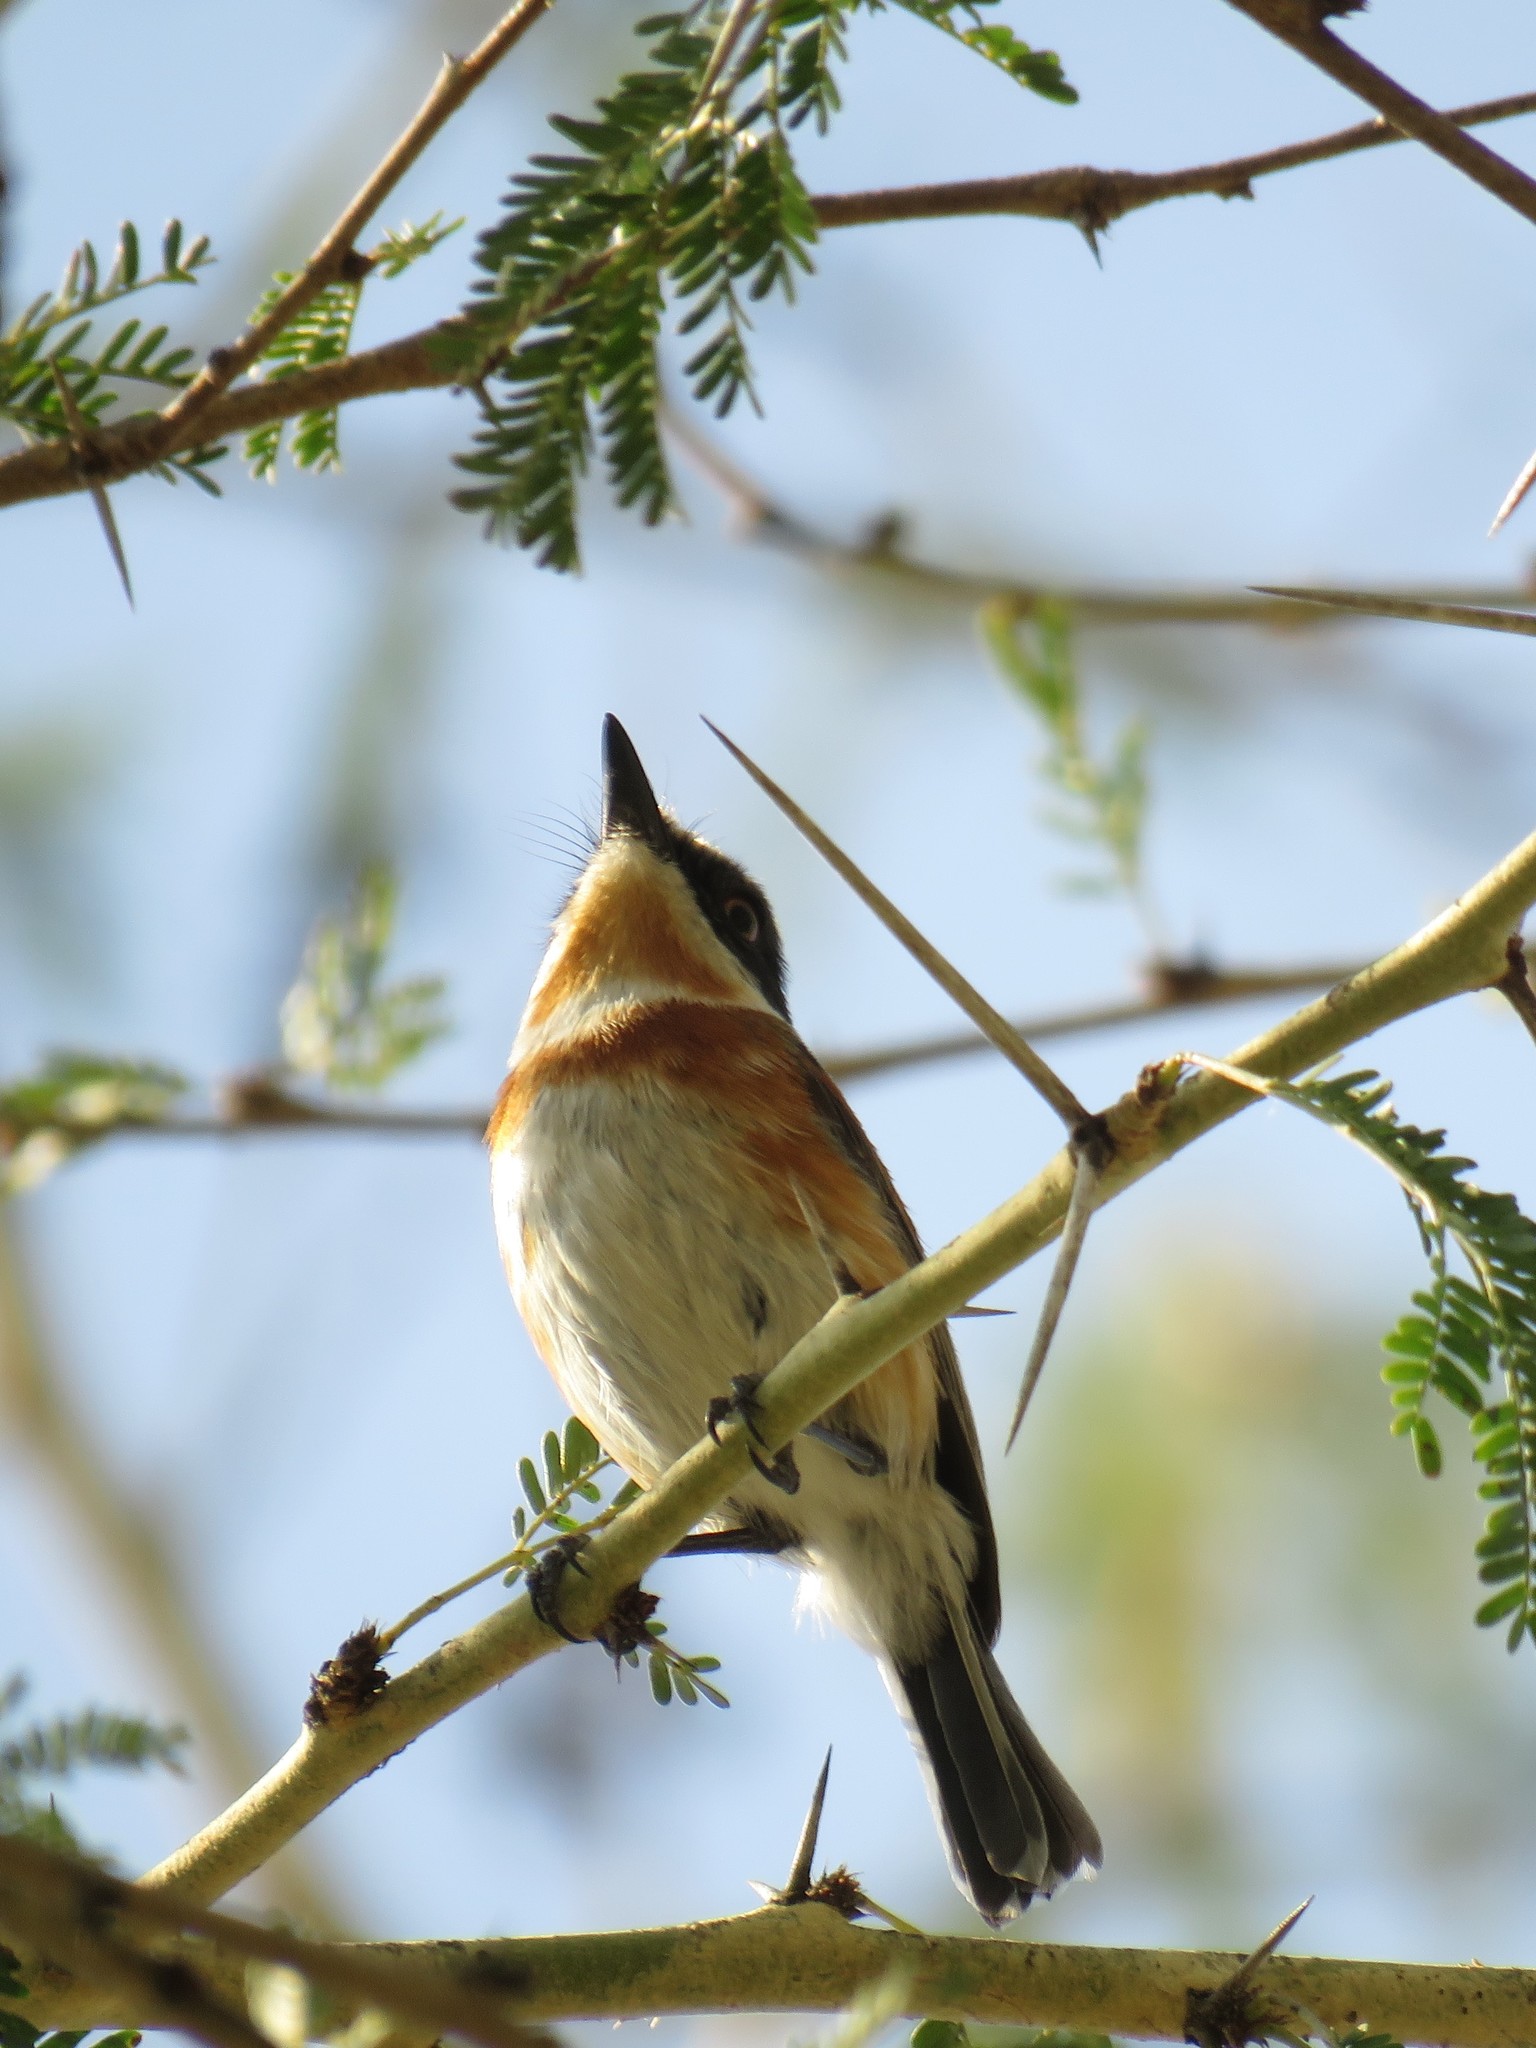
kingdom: Animalia
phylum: Chordata
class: Aves
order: Passeriformes
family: Platysteiridae
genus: Batis
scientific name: Batis capensis
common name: Cape batis
